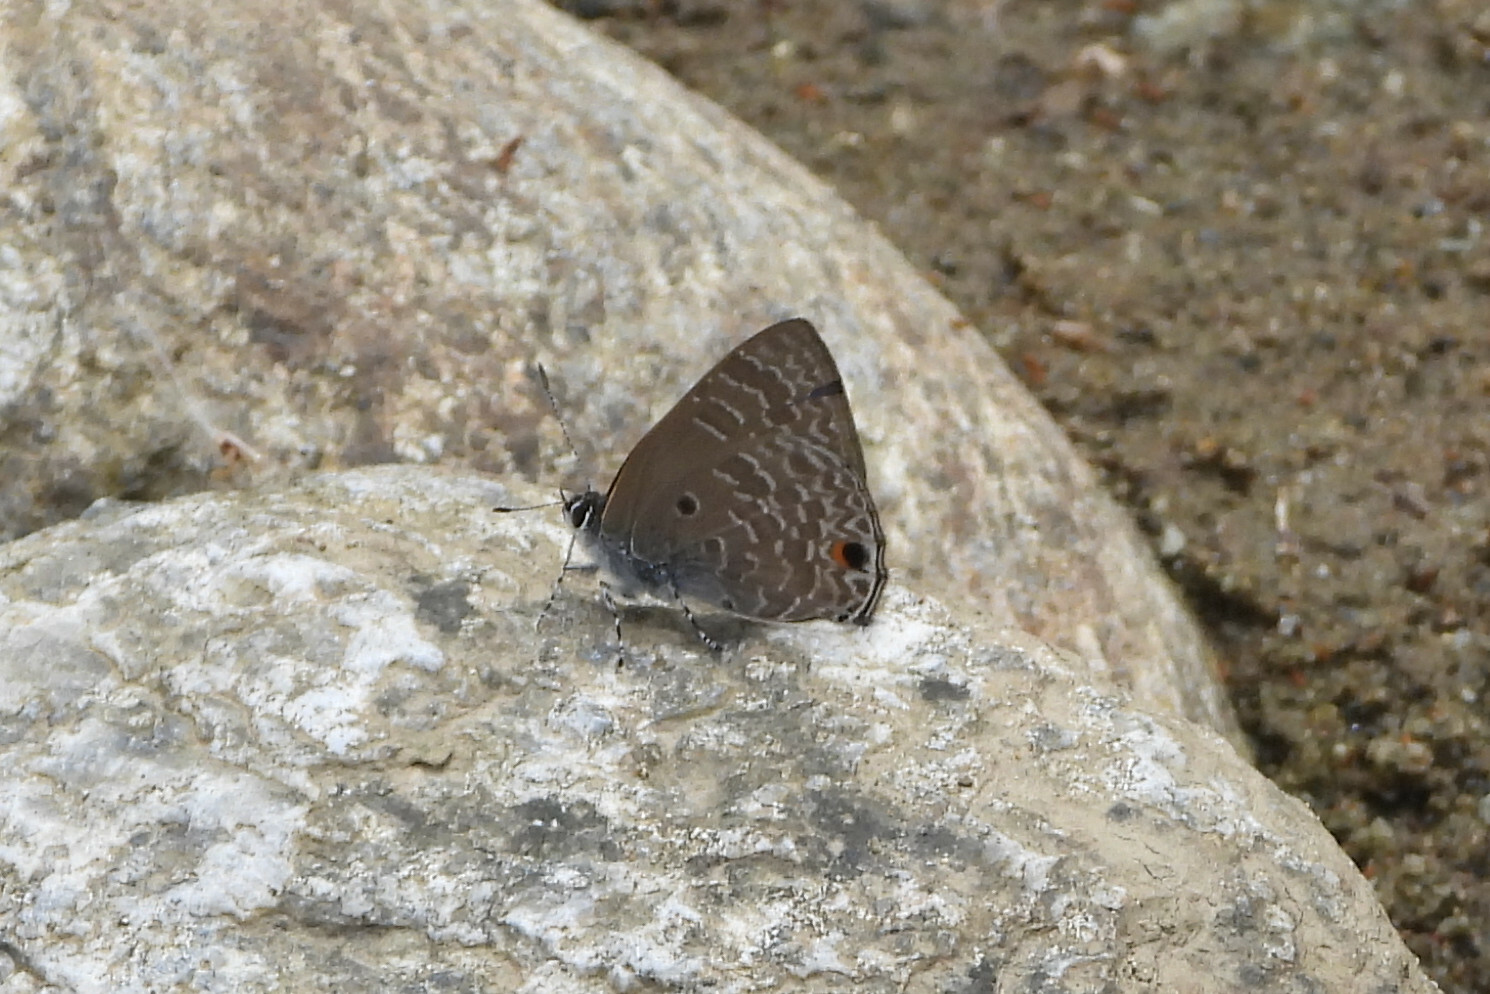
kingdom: Animalia
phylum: Arthropoda
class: Insecta
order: Lepidoptera
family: Lycaenidae
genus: Anthene
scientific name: Anthene lycaenina
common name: Pointed ciliate blue
